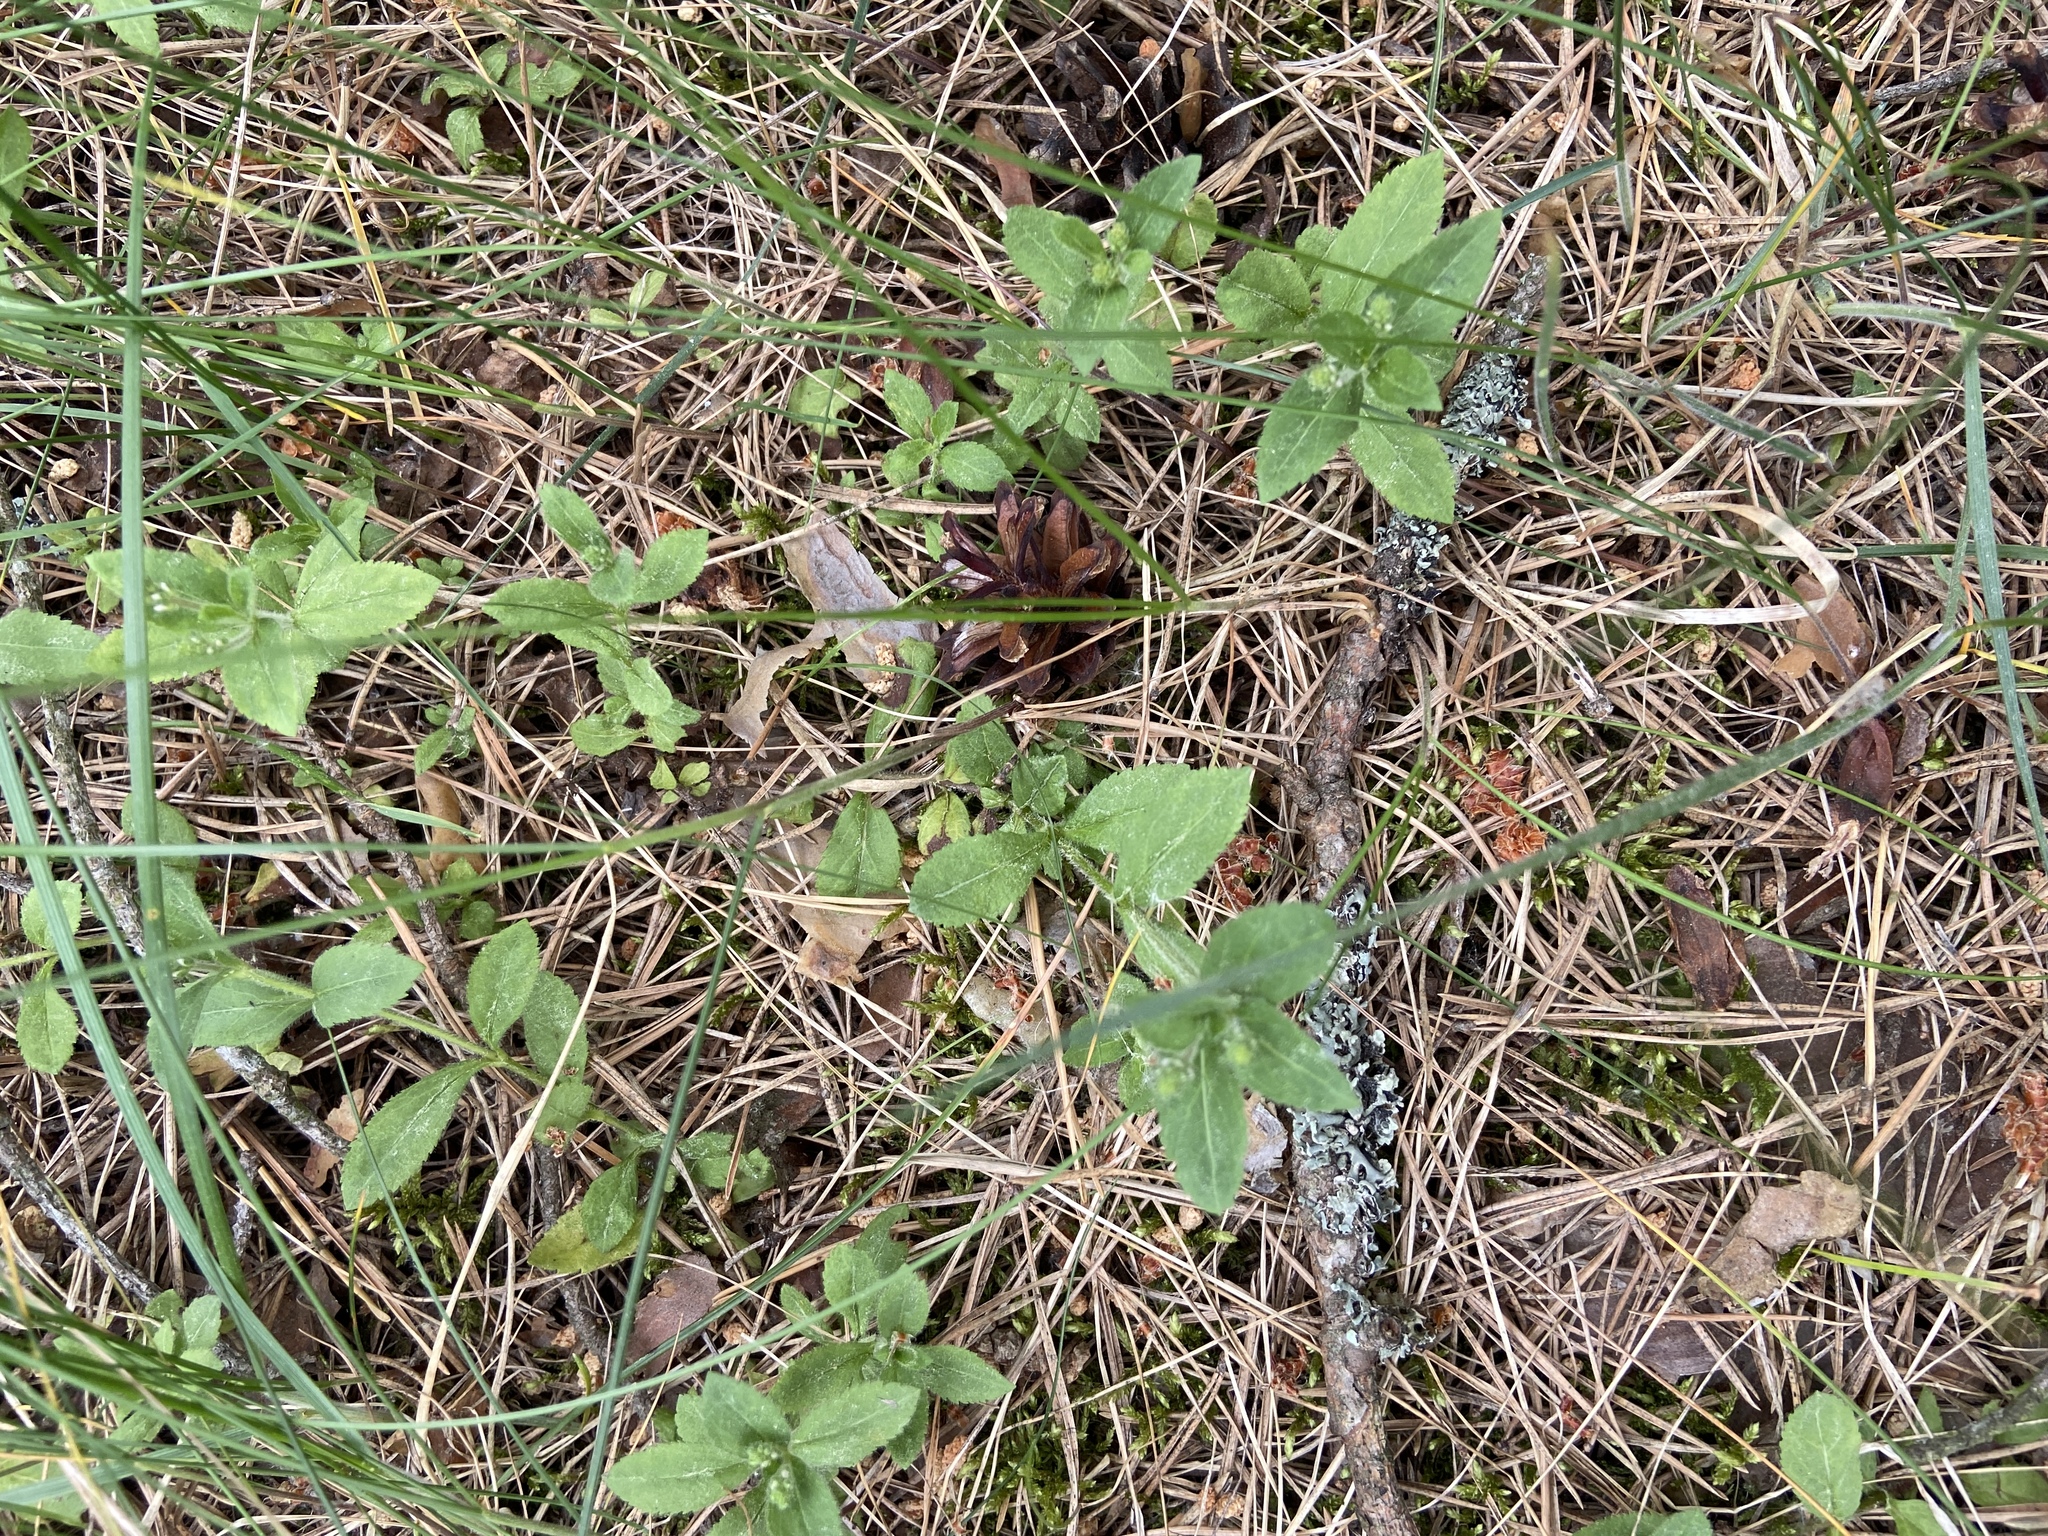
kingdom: Plantae
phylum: Tracheophyta
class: Magnoliopsida
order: Lamiales
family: Plantaginaceae
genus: Veronica
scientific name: Veronica officinalis
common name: Common speedwell
